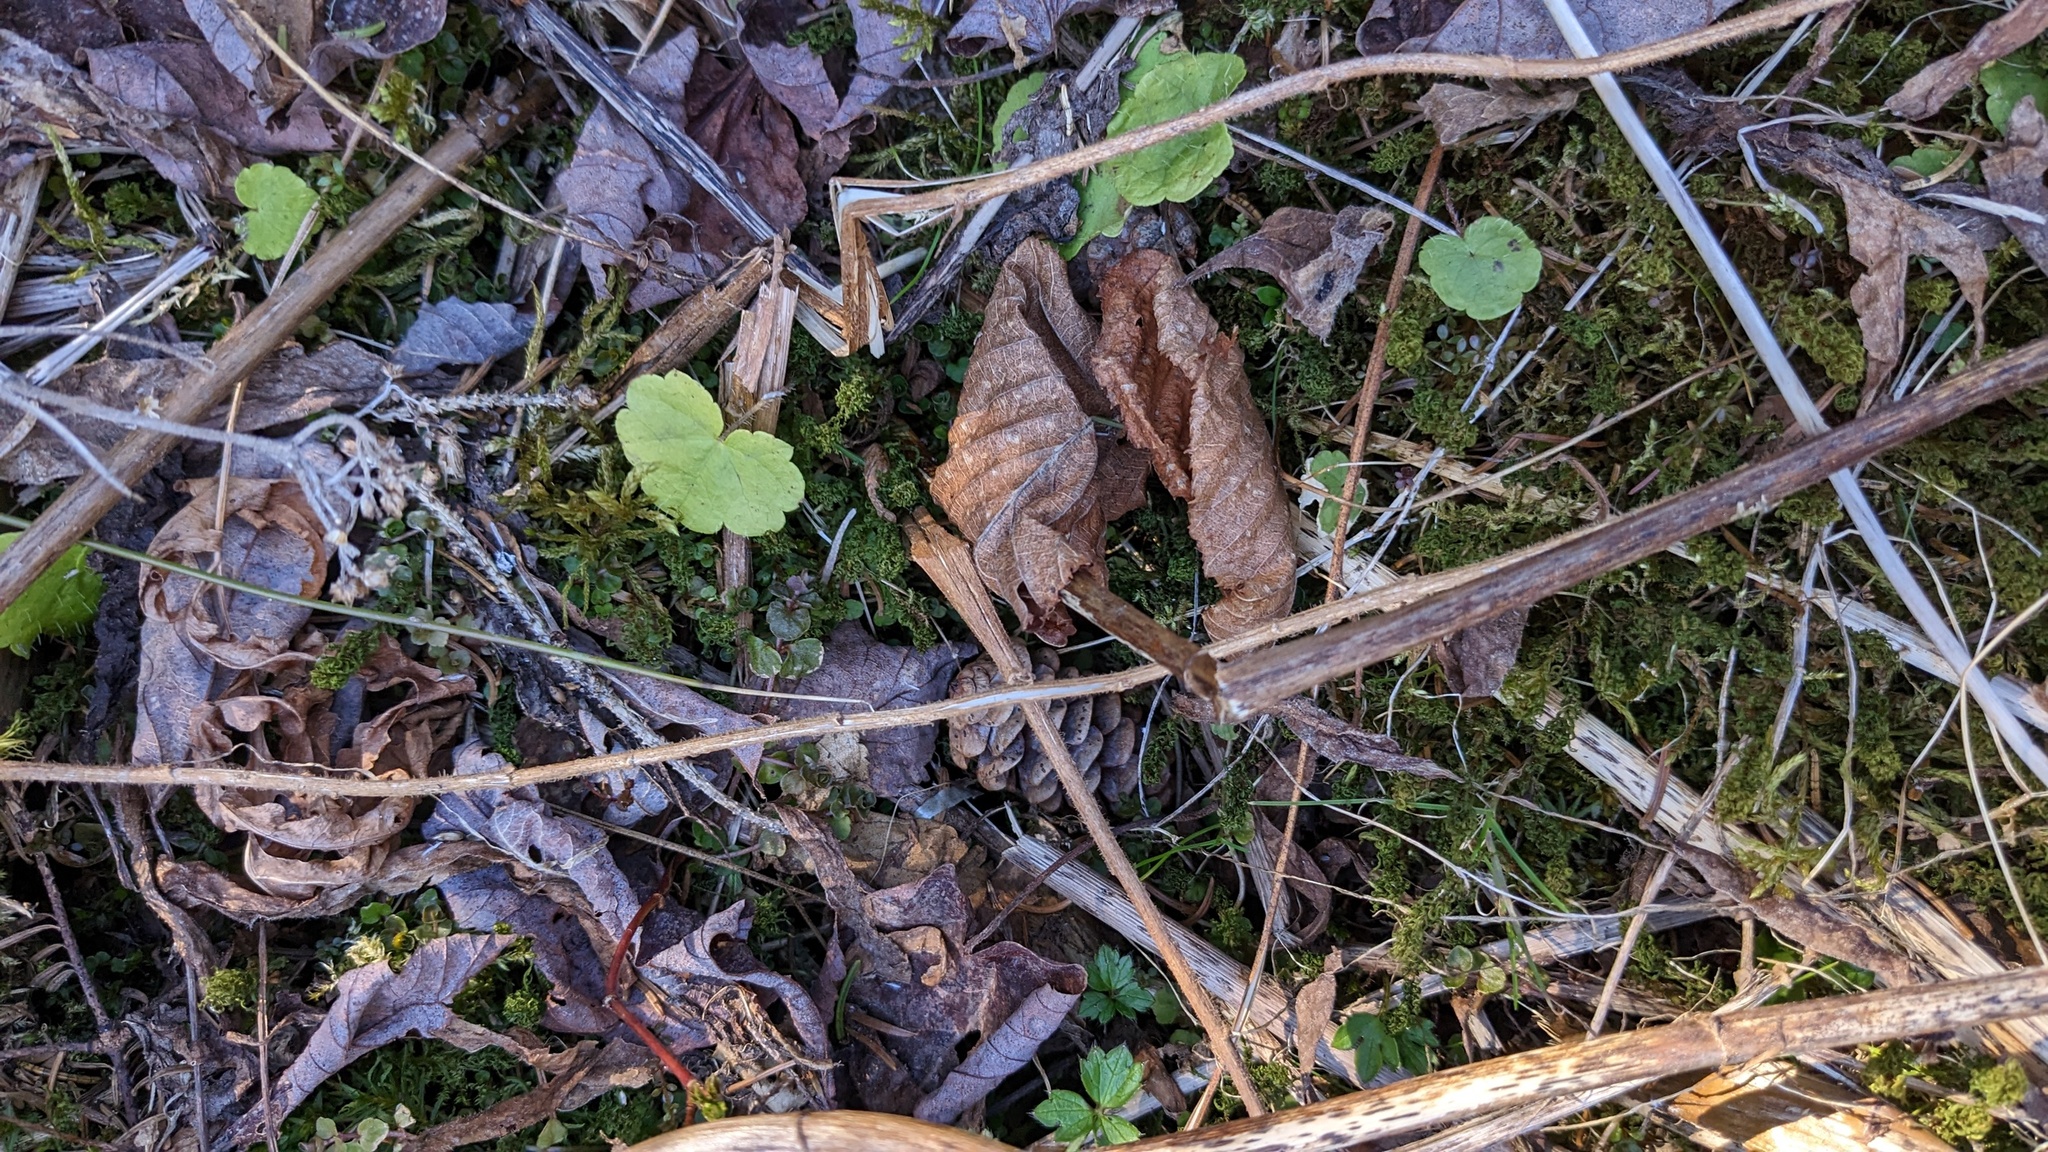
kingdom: Plantae
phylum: Tracheophyta
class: Magnoliopsida
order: Saxifragales
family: Saxifragaceae
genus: Mitella
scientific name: Mitella nuda
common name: Bare-stemmed bishop's-cap
